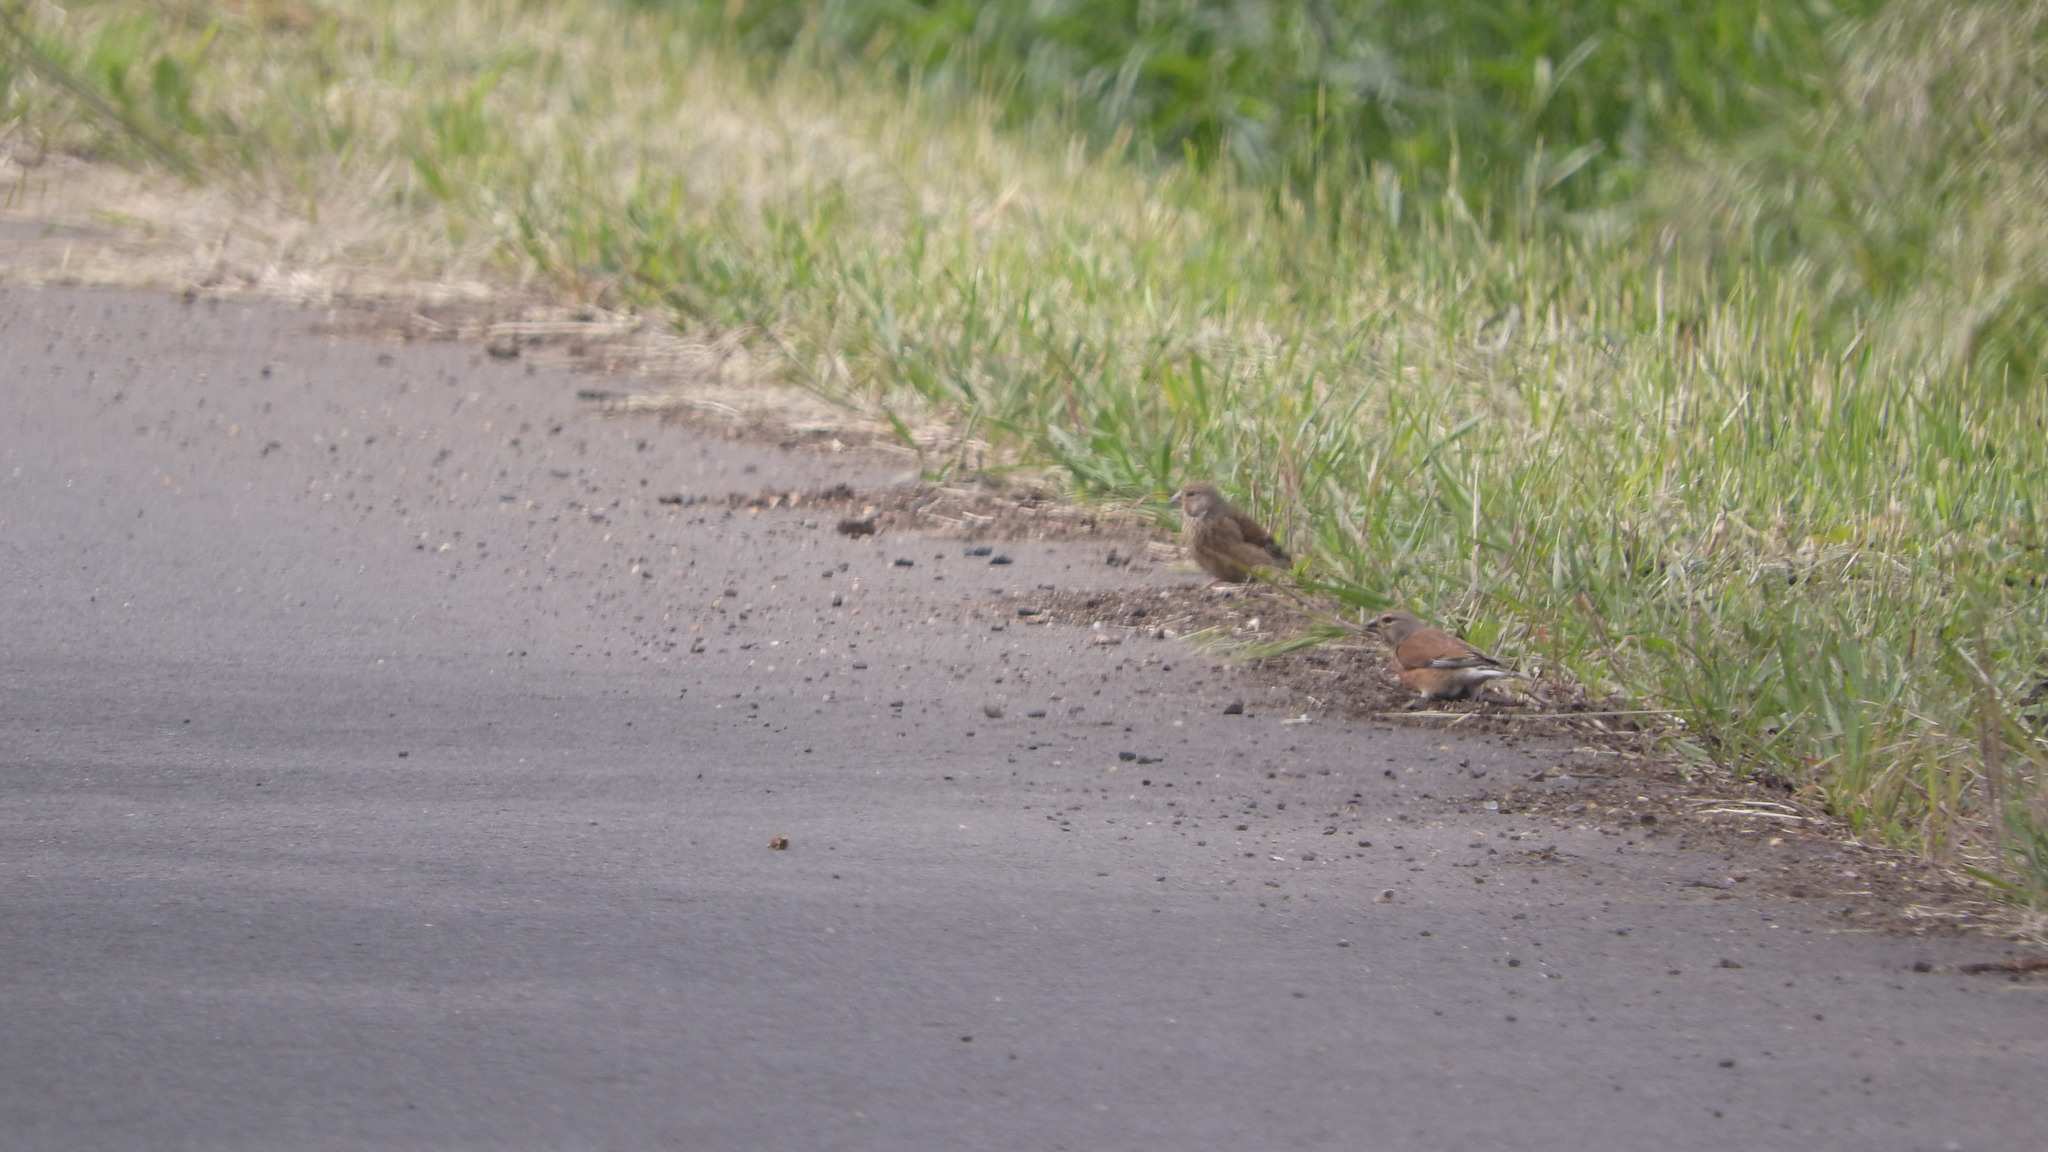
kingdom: Animalia
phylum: Chordata
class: Aves
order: Passeriformes
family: Fringillidae
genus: Linaria
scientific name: Linaria cannabina
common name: Common linnet
